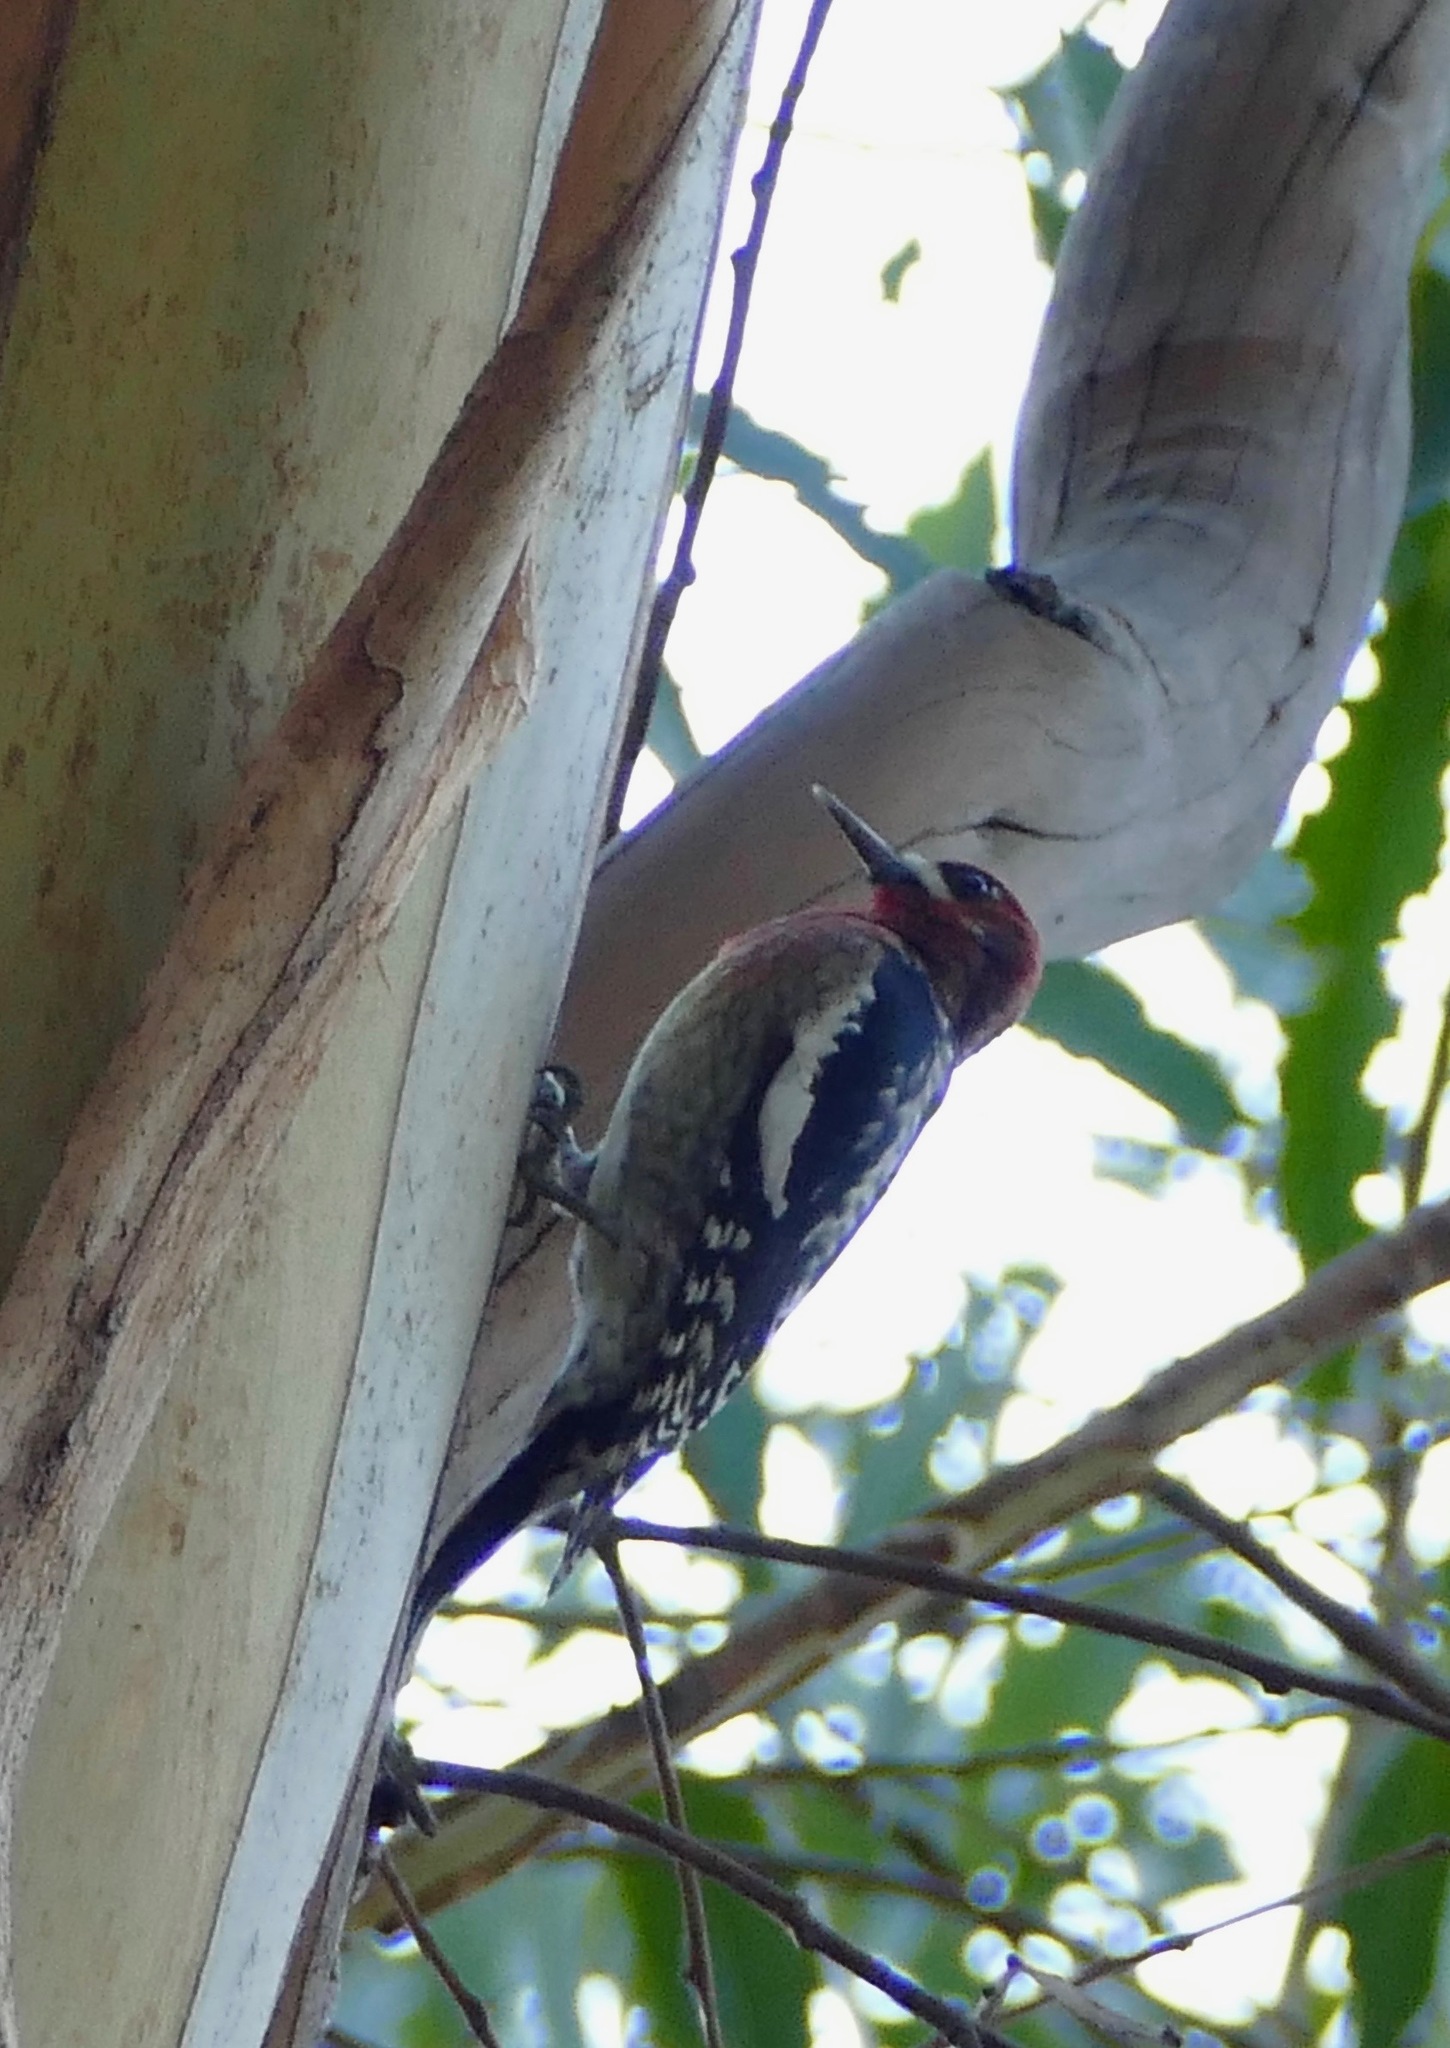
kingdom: Animalia
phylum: Chordata
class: Aves
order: Piciformes
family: Picidae
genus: Sphyrapicus
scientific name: Sphyrapicus ruber
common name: Red-breasted sapsucker
